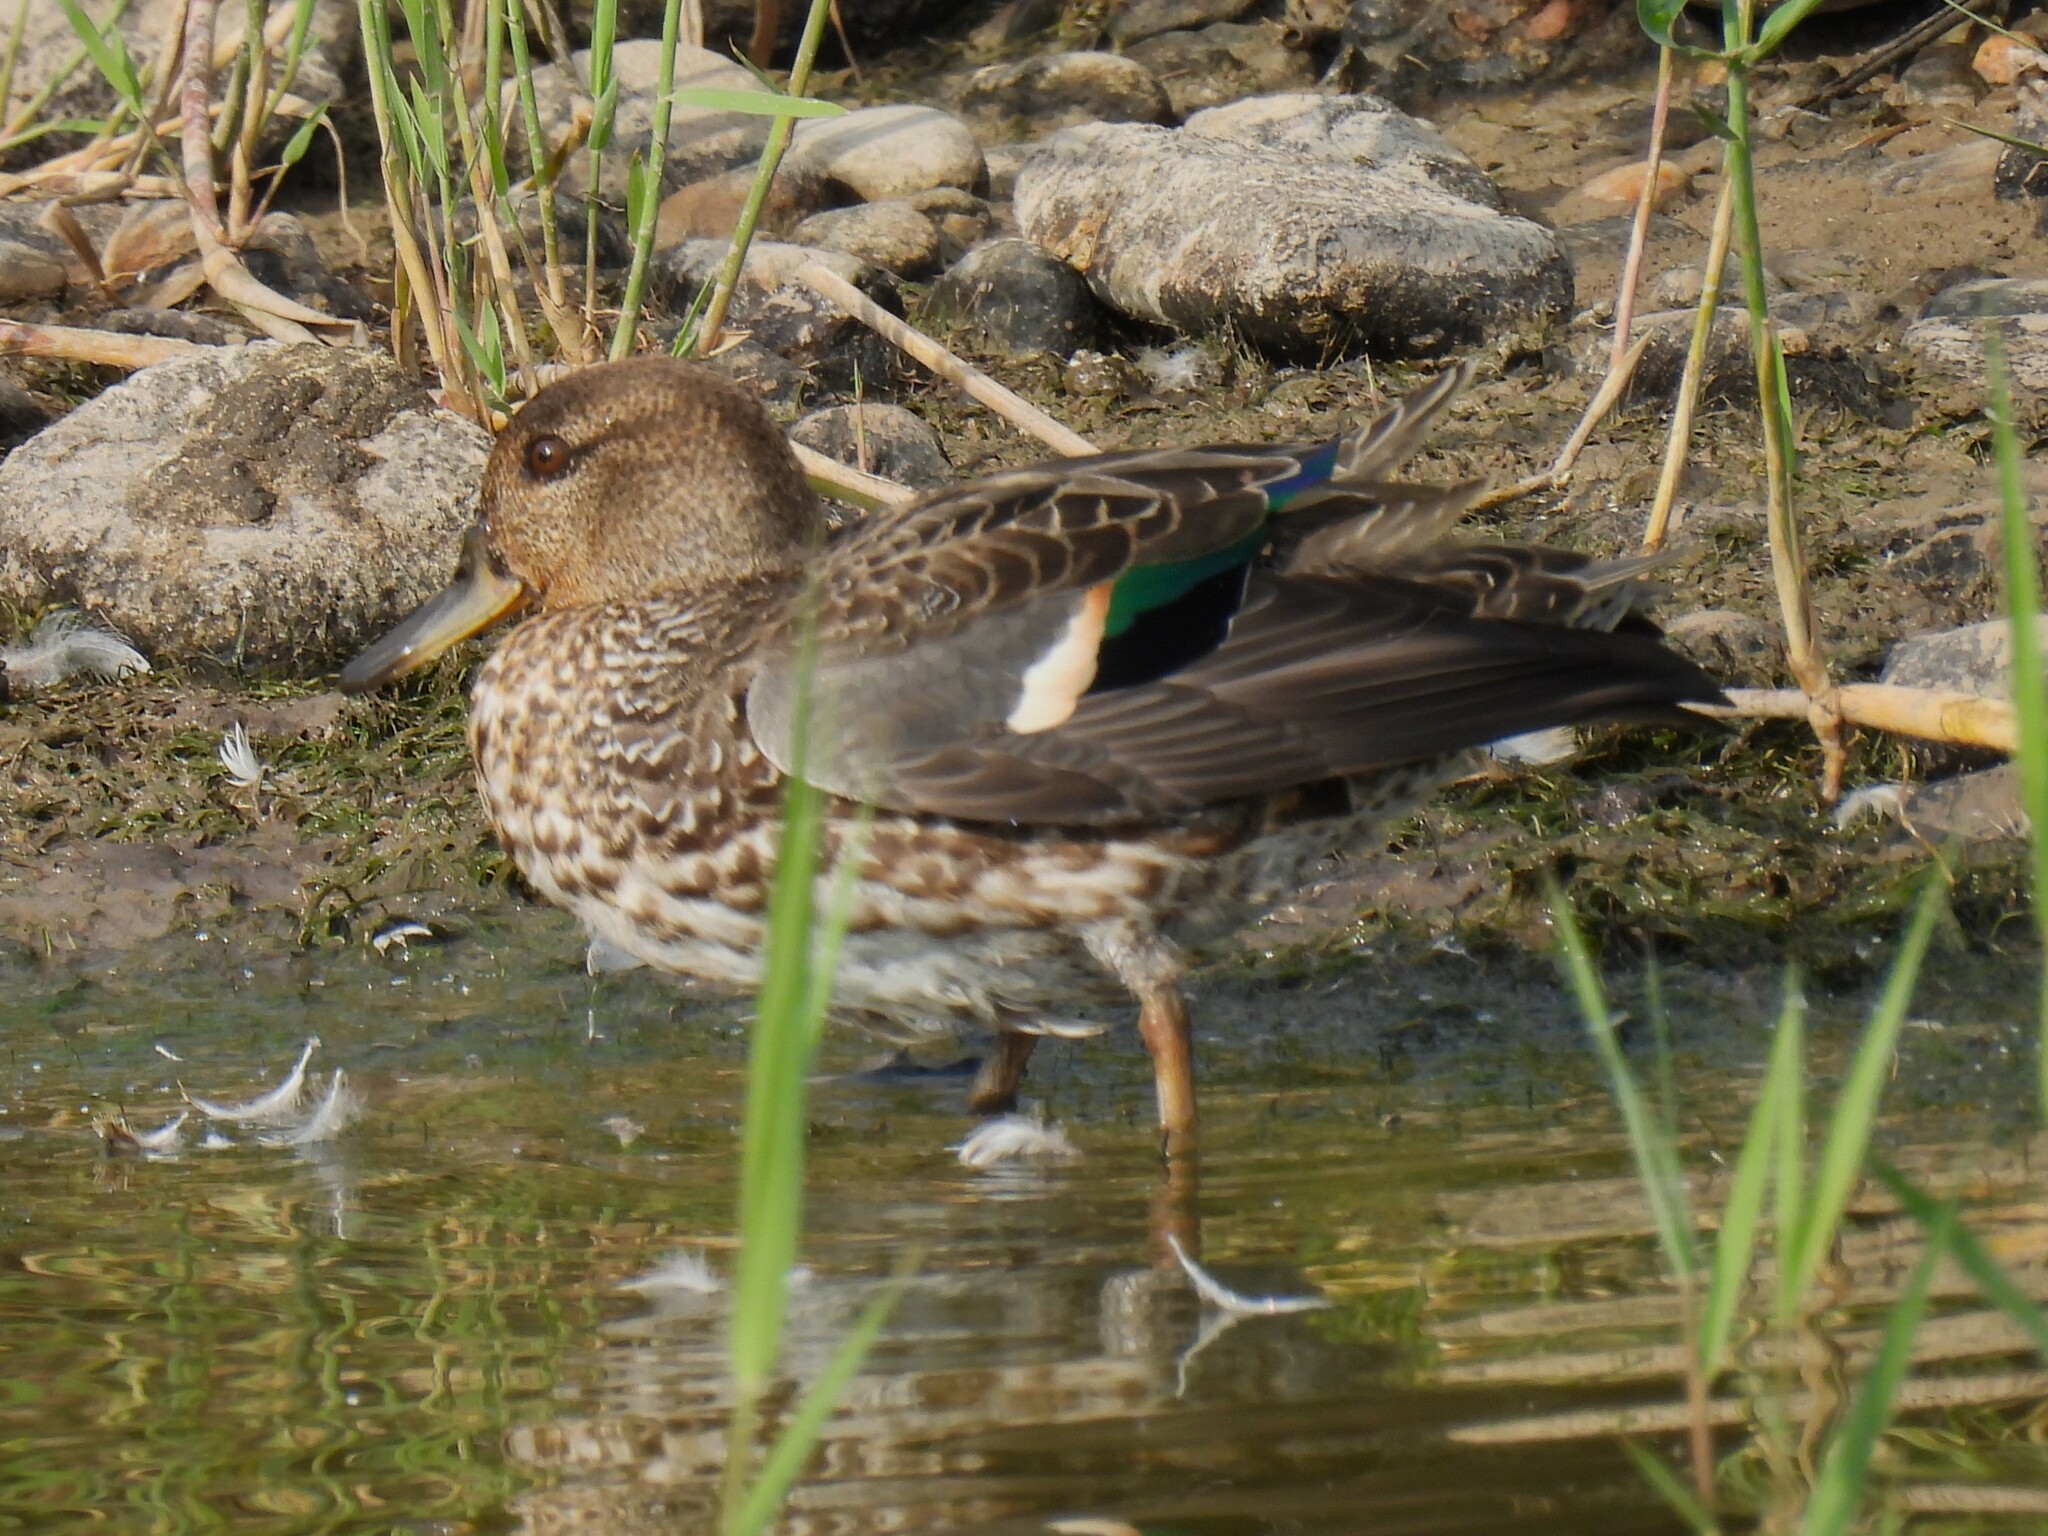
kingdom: Animalia
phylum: Chordata
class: Aves
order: Anseriformes
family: Anatidae
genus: Anas
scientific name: Anas crecca
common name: Eurasian teal
